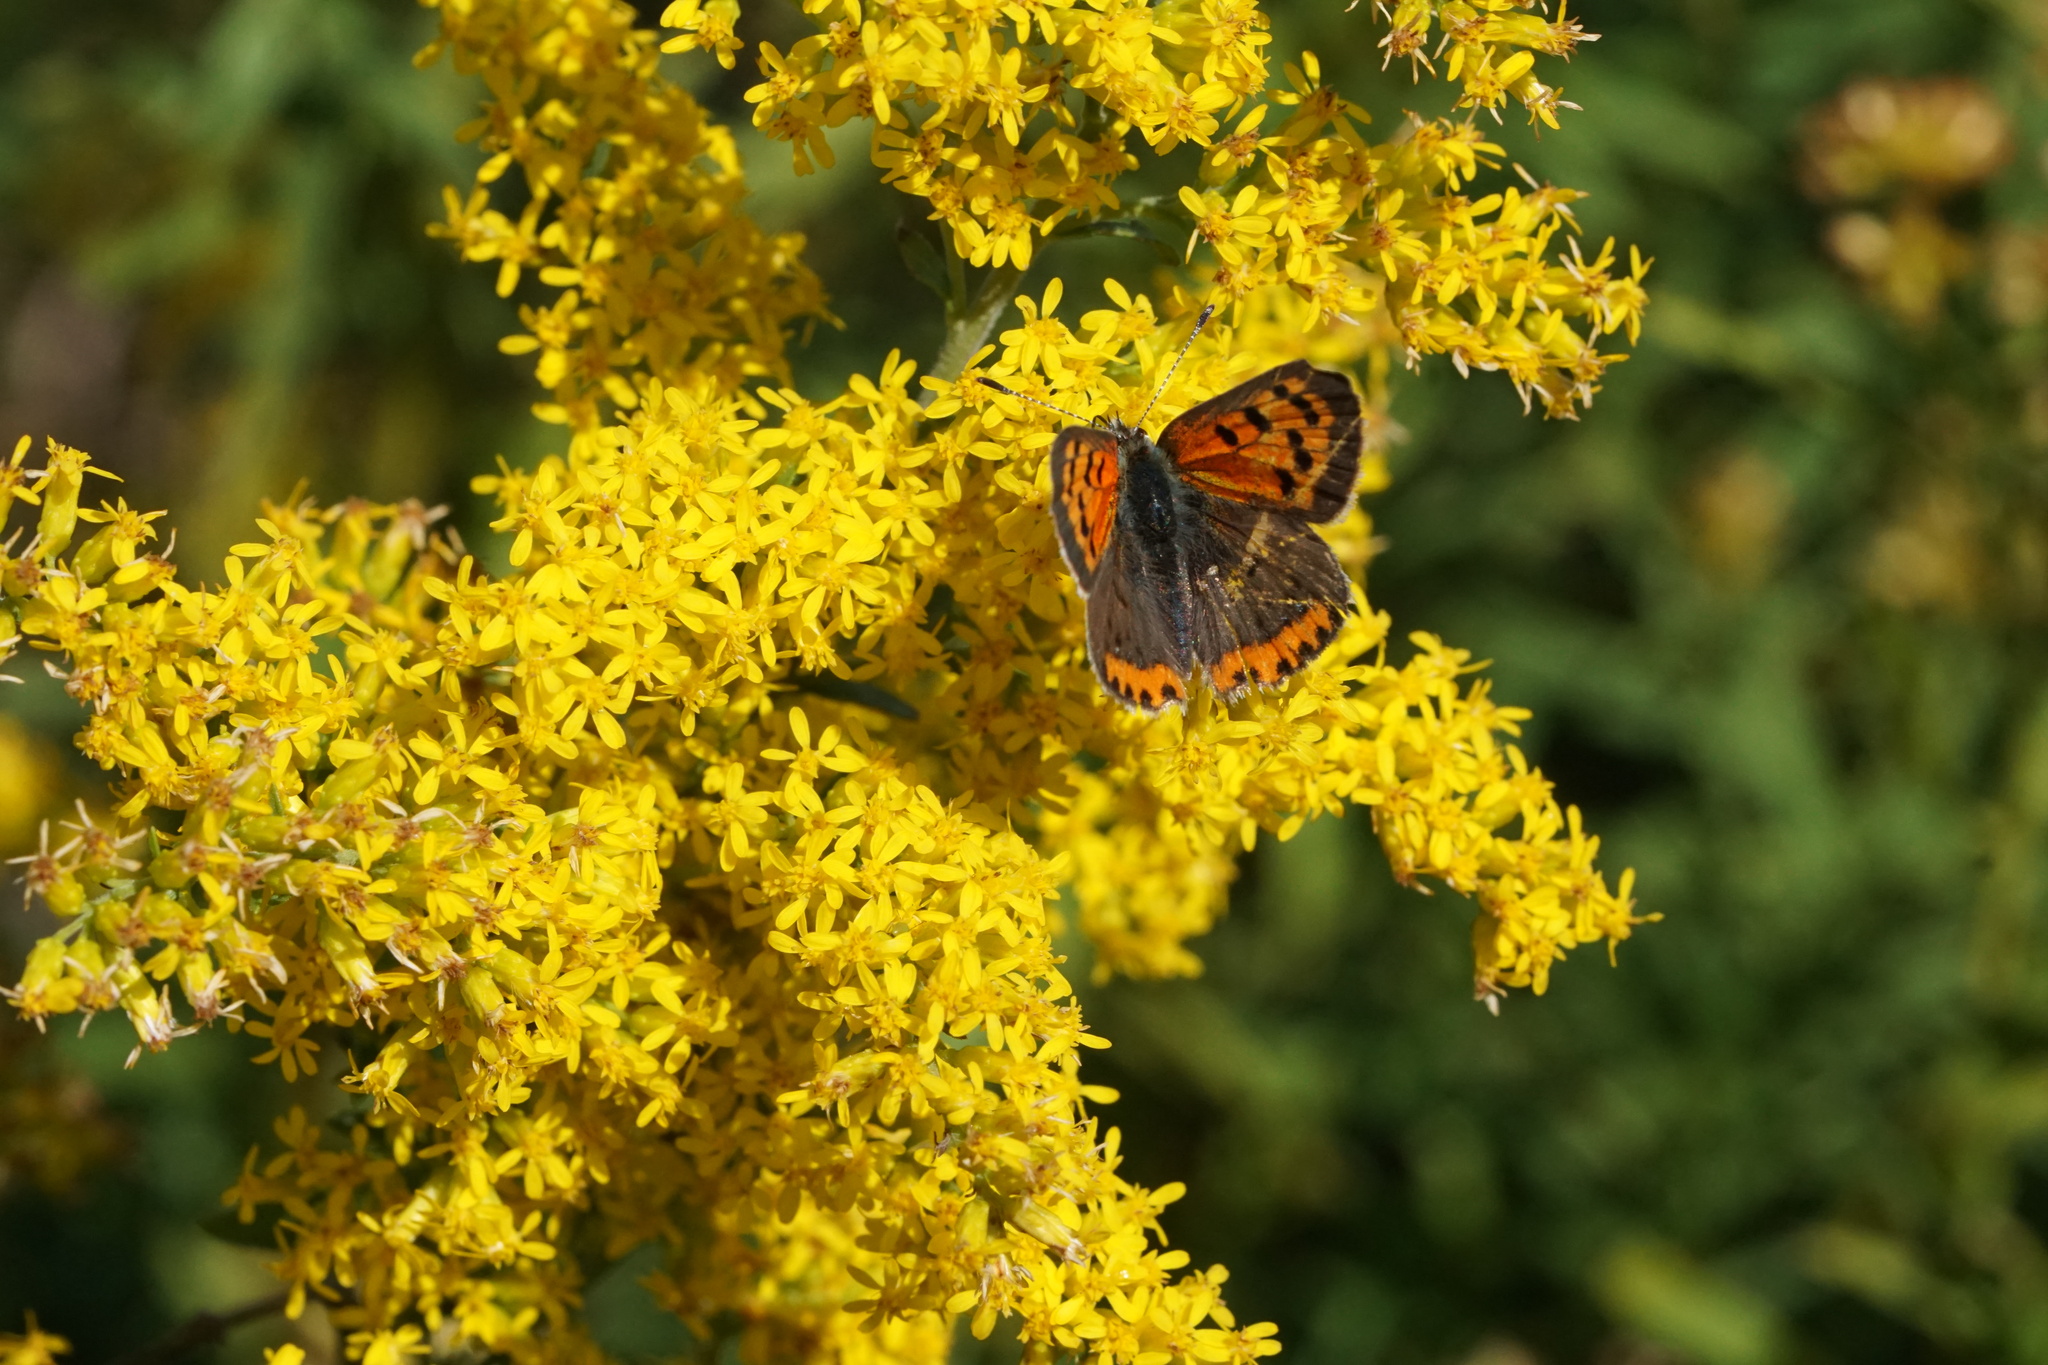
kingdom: Animalia
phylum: Arthropoda
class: Insecta
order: Lepidoptera
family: Lycaenidae
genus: Lycaena
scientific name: Lycaena hypophlaeas
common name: American copper
